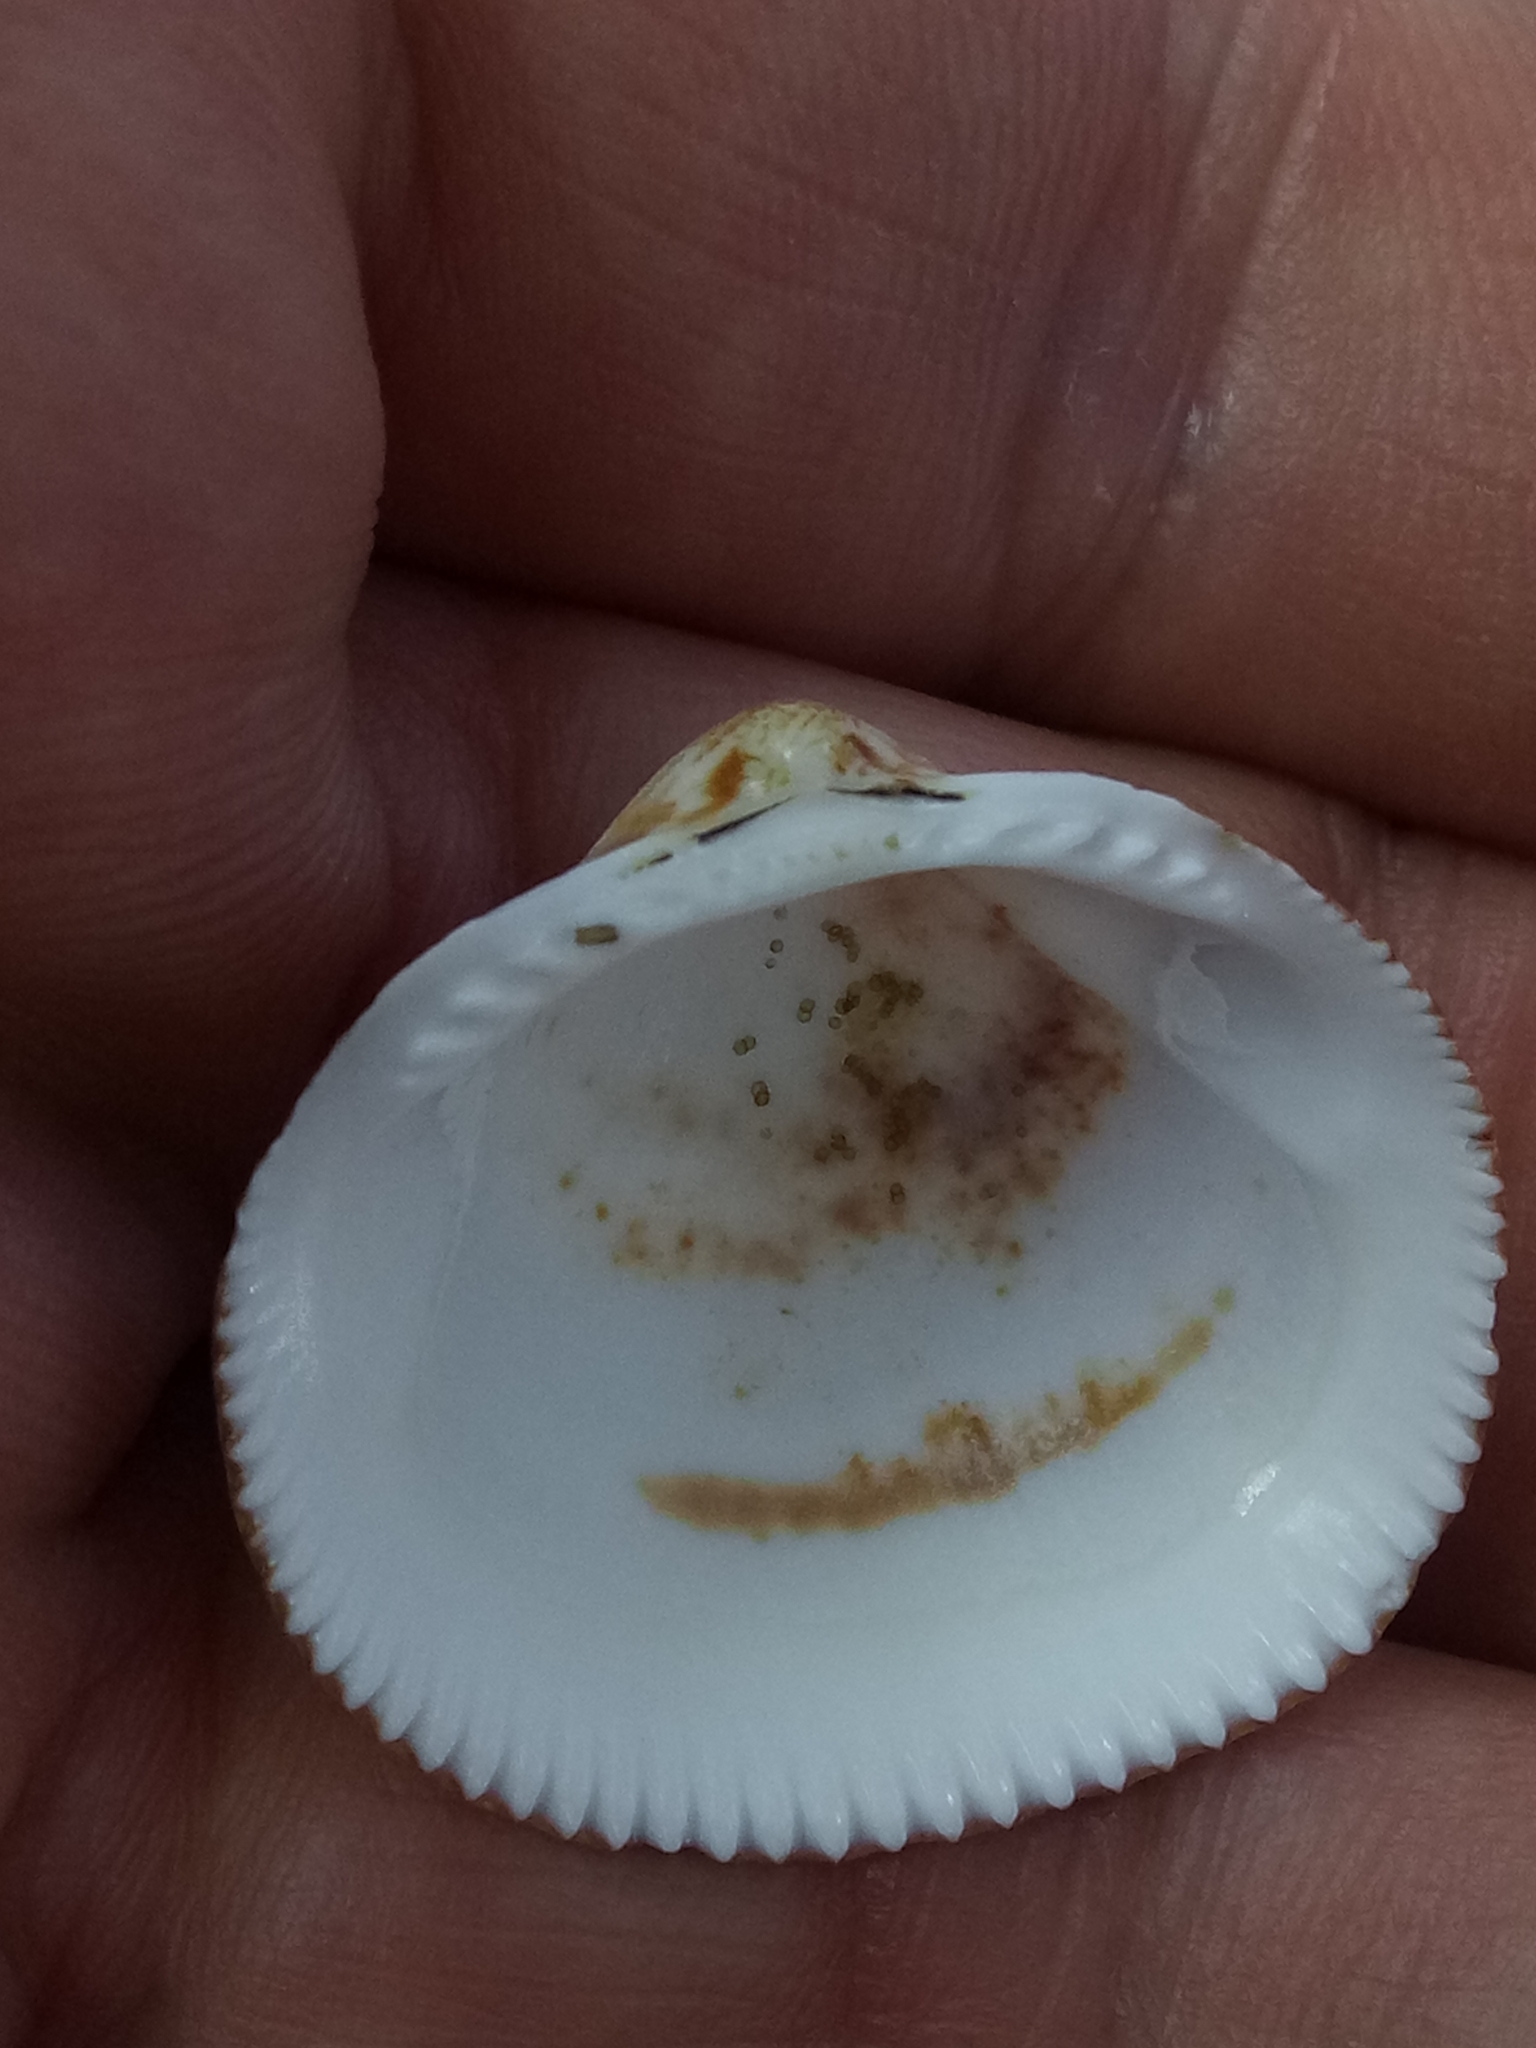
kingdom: Animalia
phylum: Mollusca
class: Bivalvia
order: Arcida
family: Glycymerididae
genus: Glycymeris
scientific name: Glycymeris nummaria
